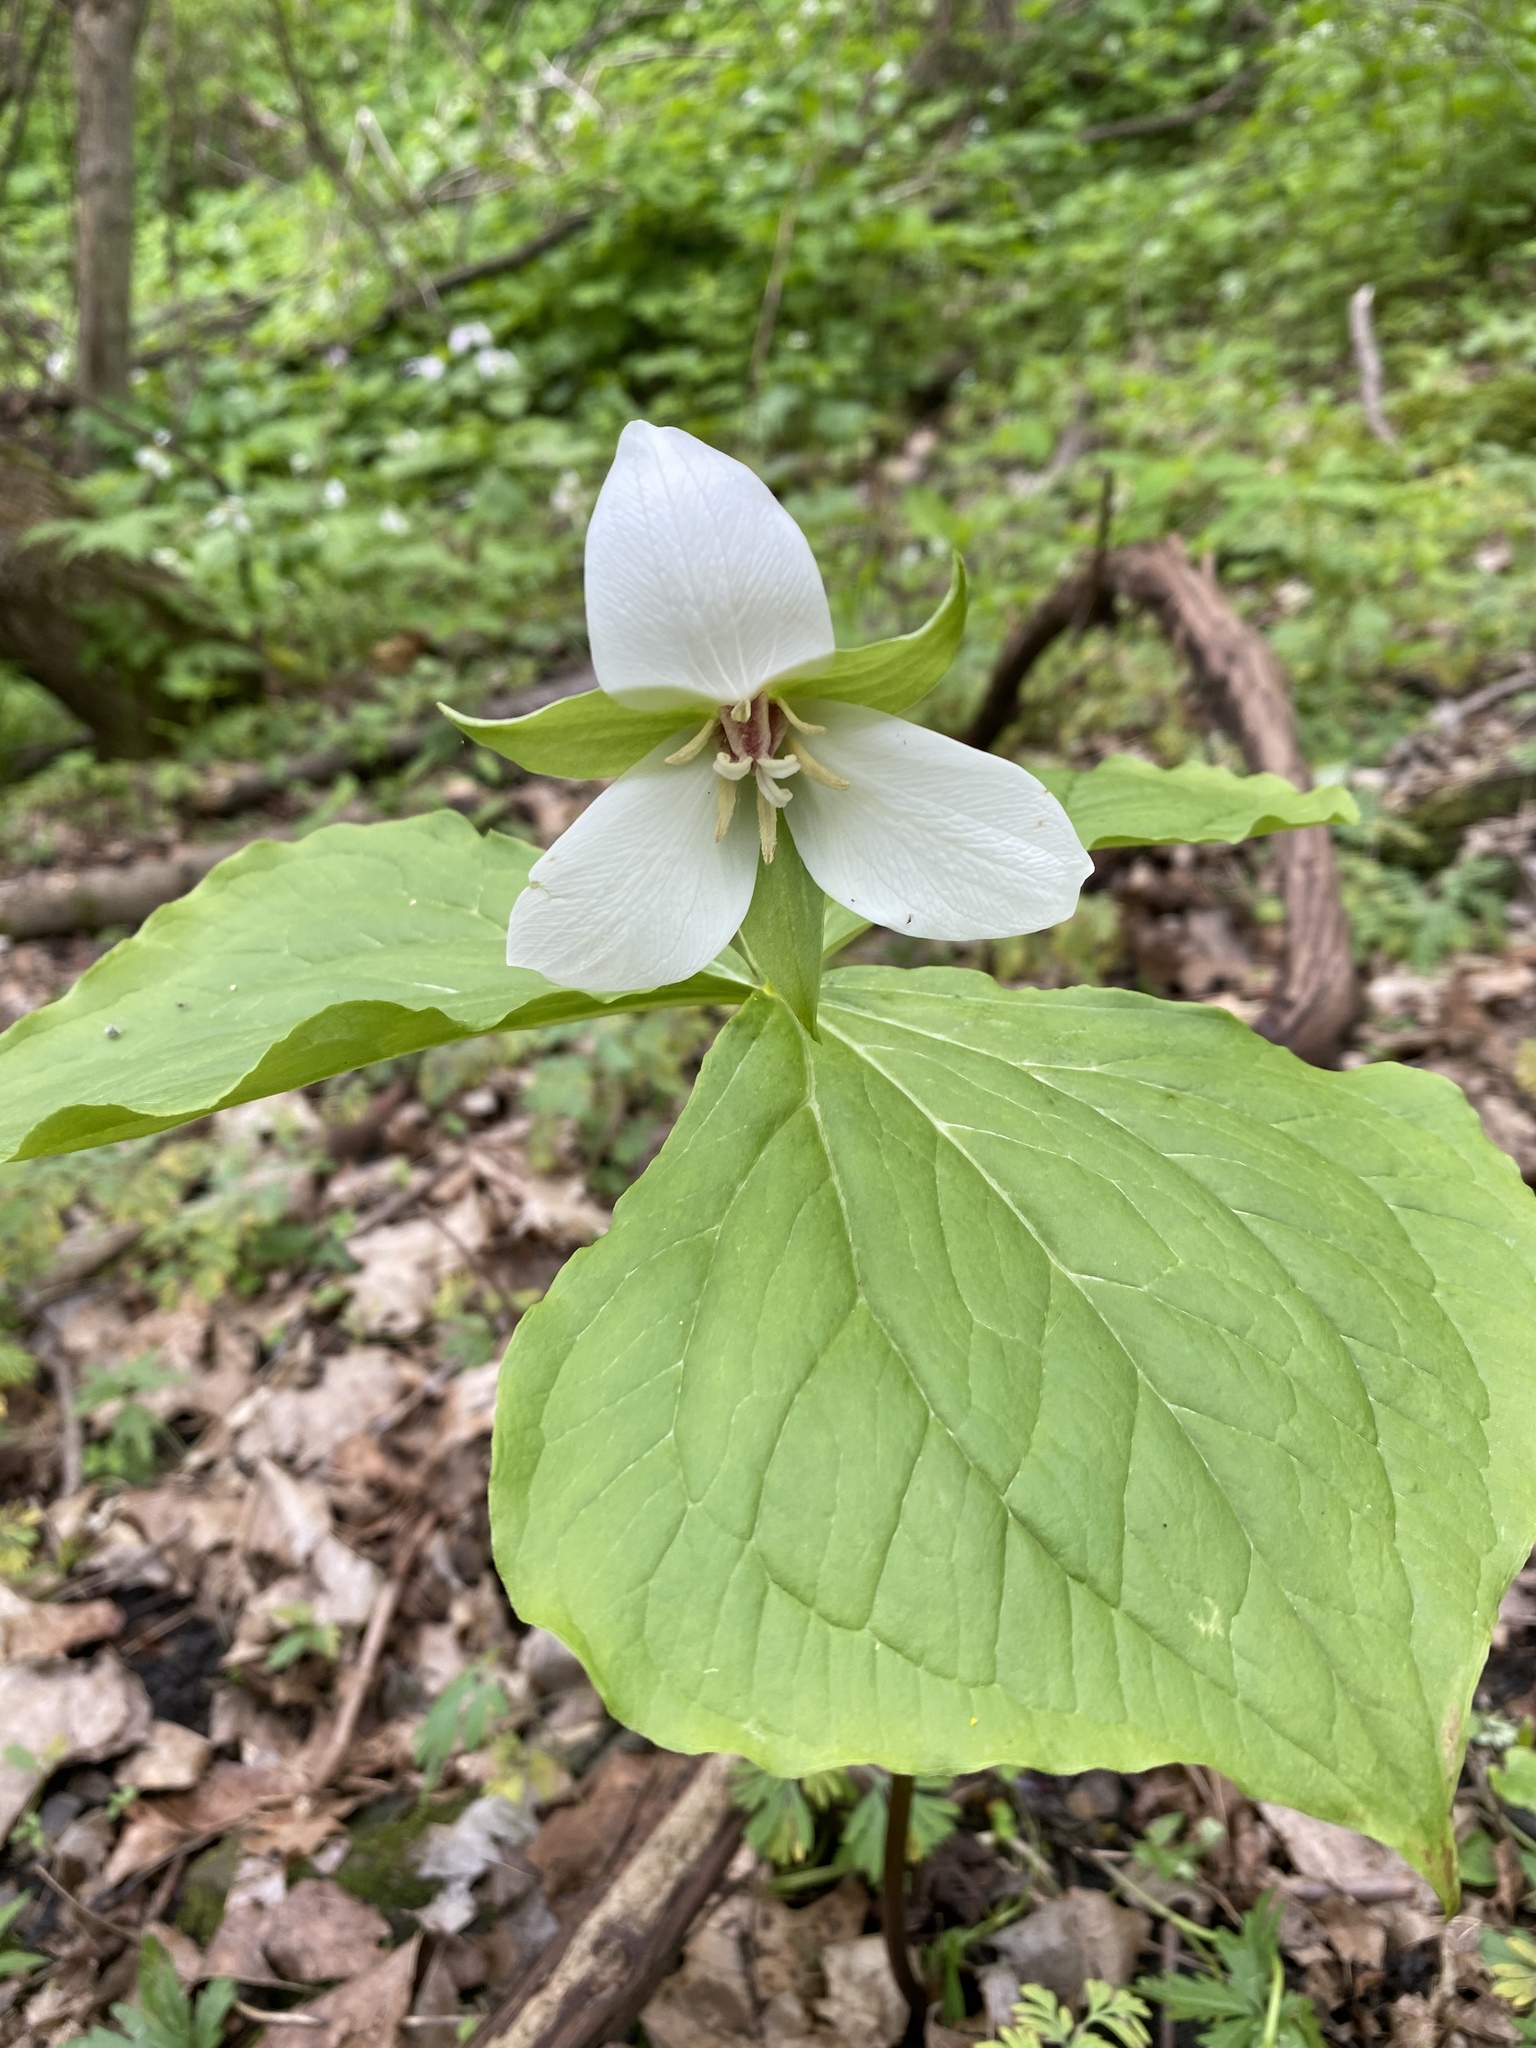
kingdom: Plantae
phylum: Tracheophyta
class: Liliopsida
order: Liliales
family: Melanthiaceae
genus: Trillium
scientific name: Trillium erectum
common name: Purple trillium
